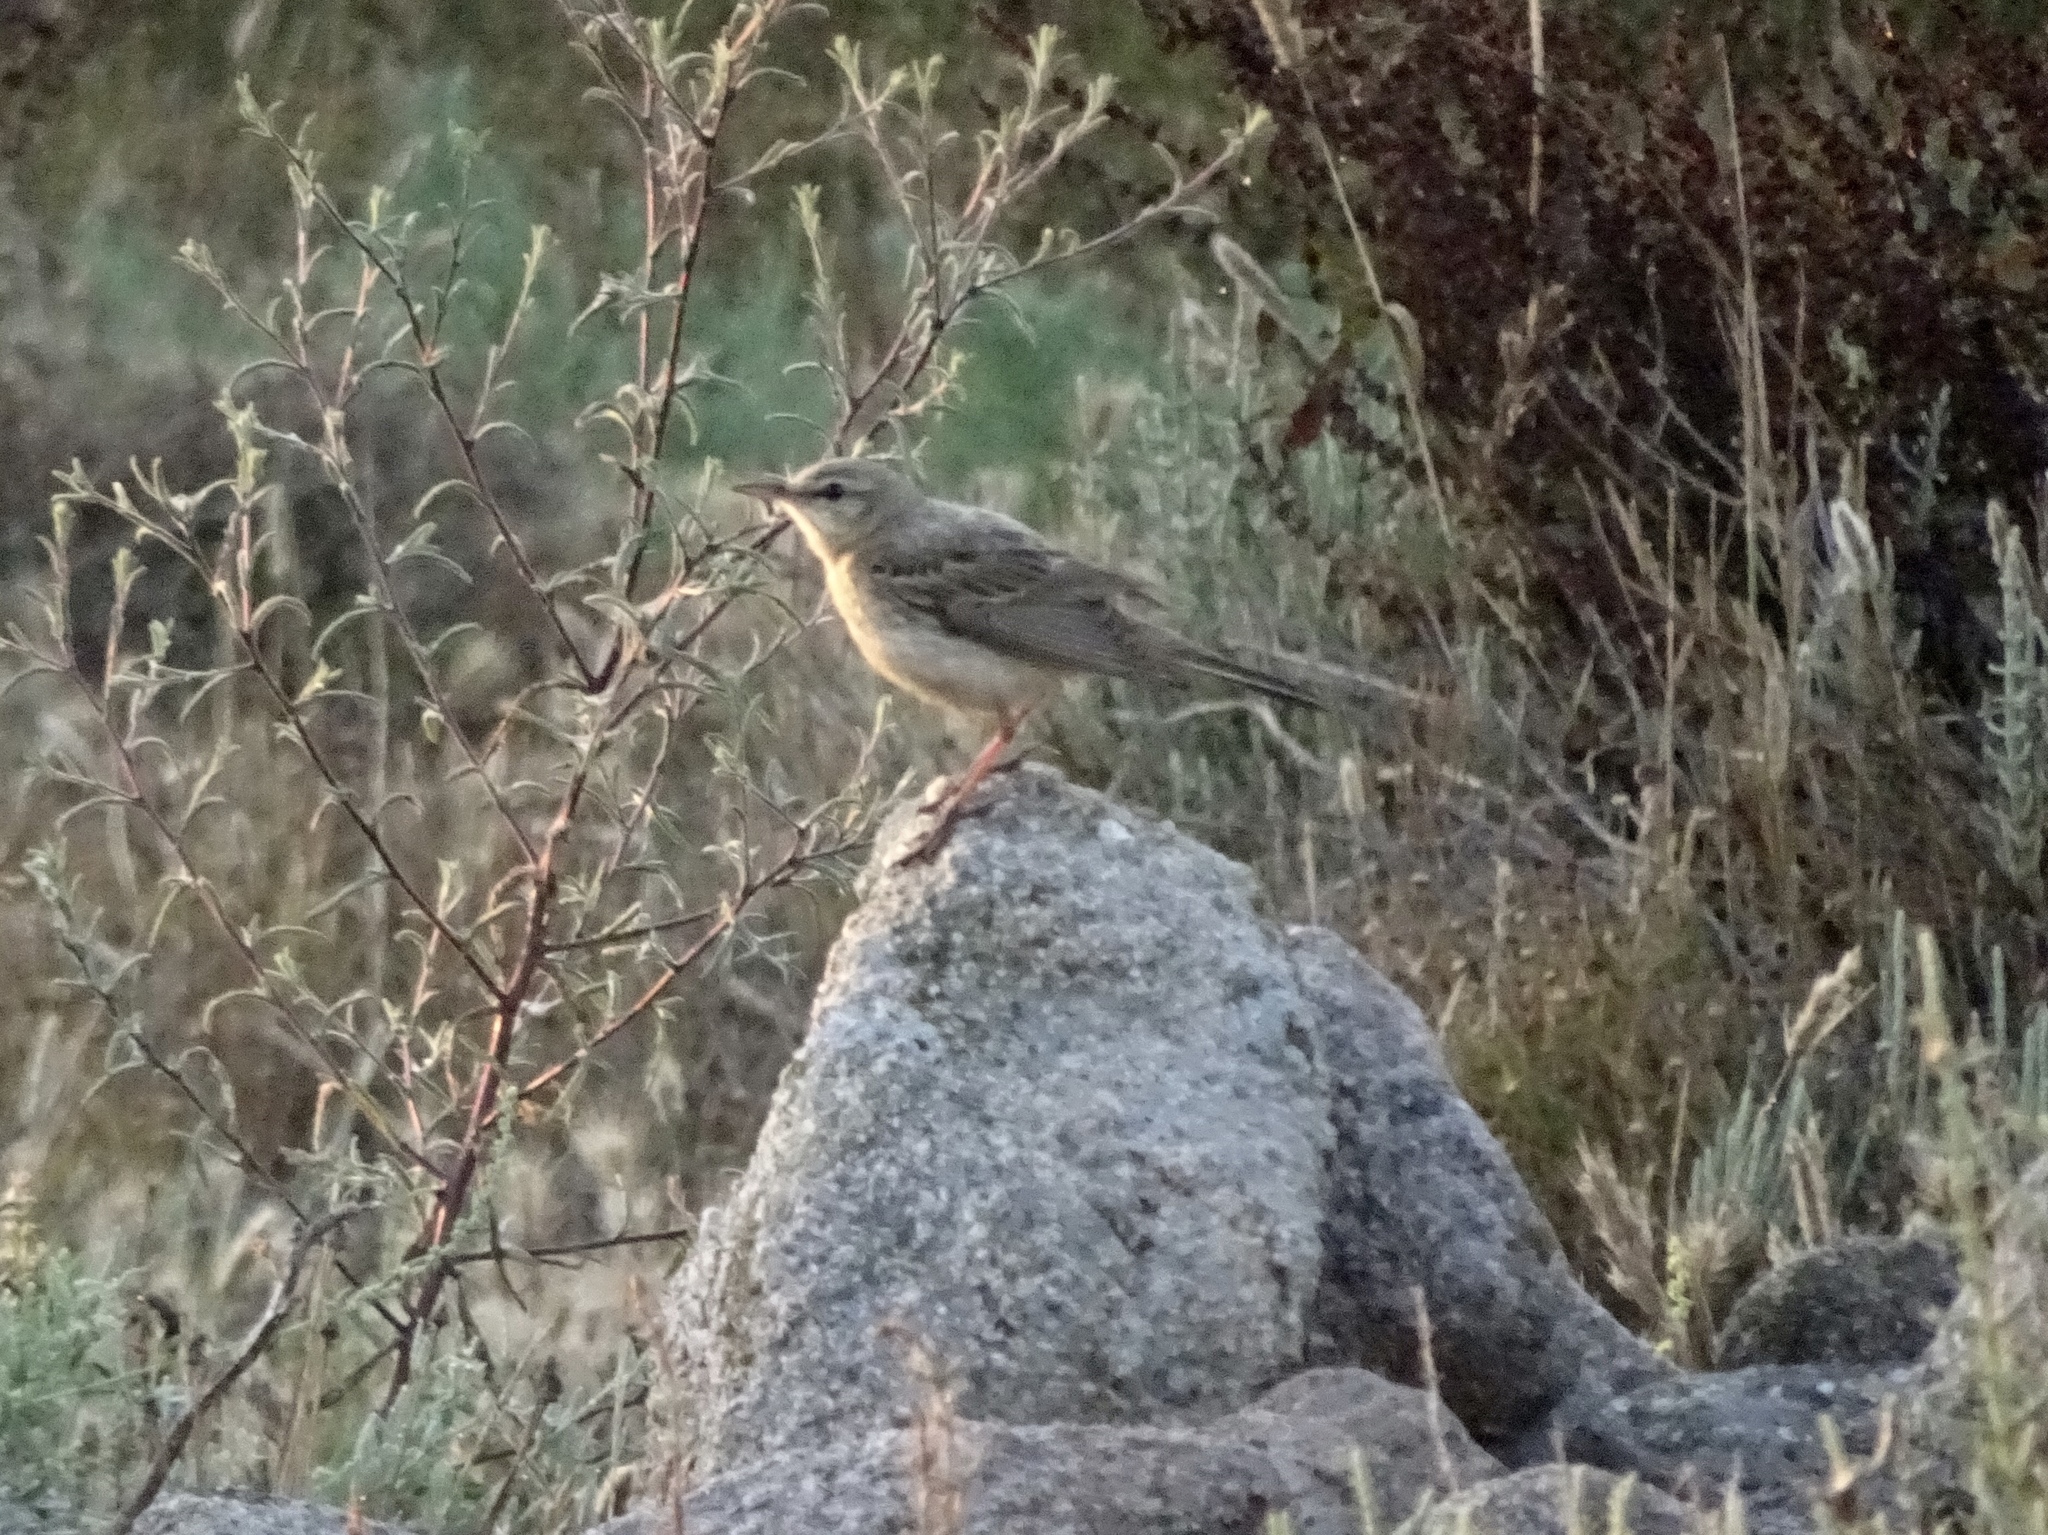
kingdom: Animalia
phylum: Chordata
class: Aves
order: Passeriformes
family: Motacillidae
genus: Anthus
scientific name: Anthus campestris
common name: Tawny pipit
